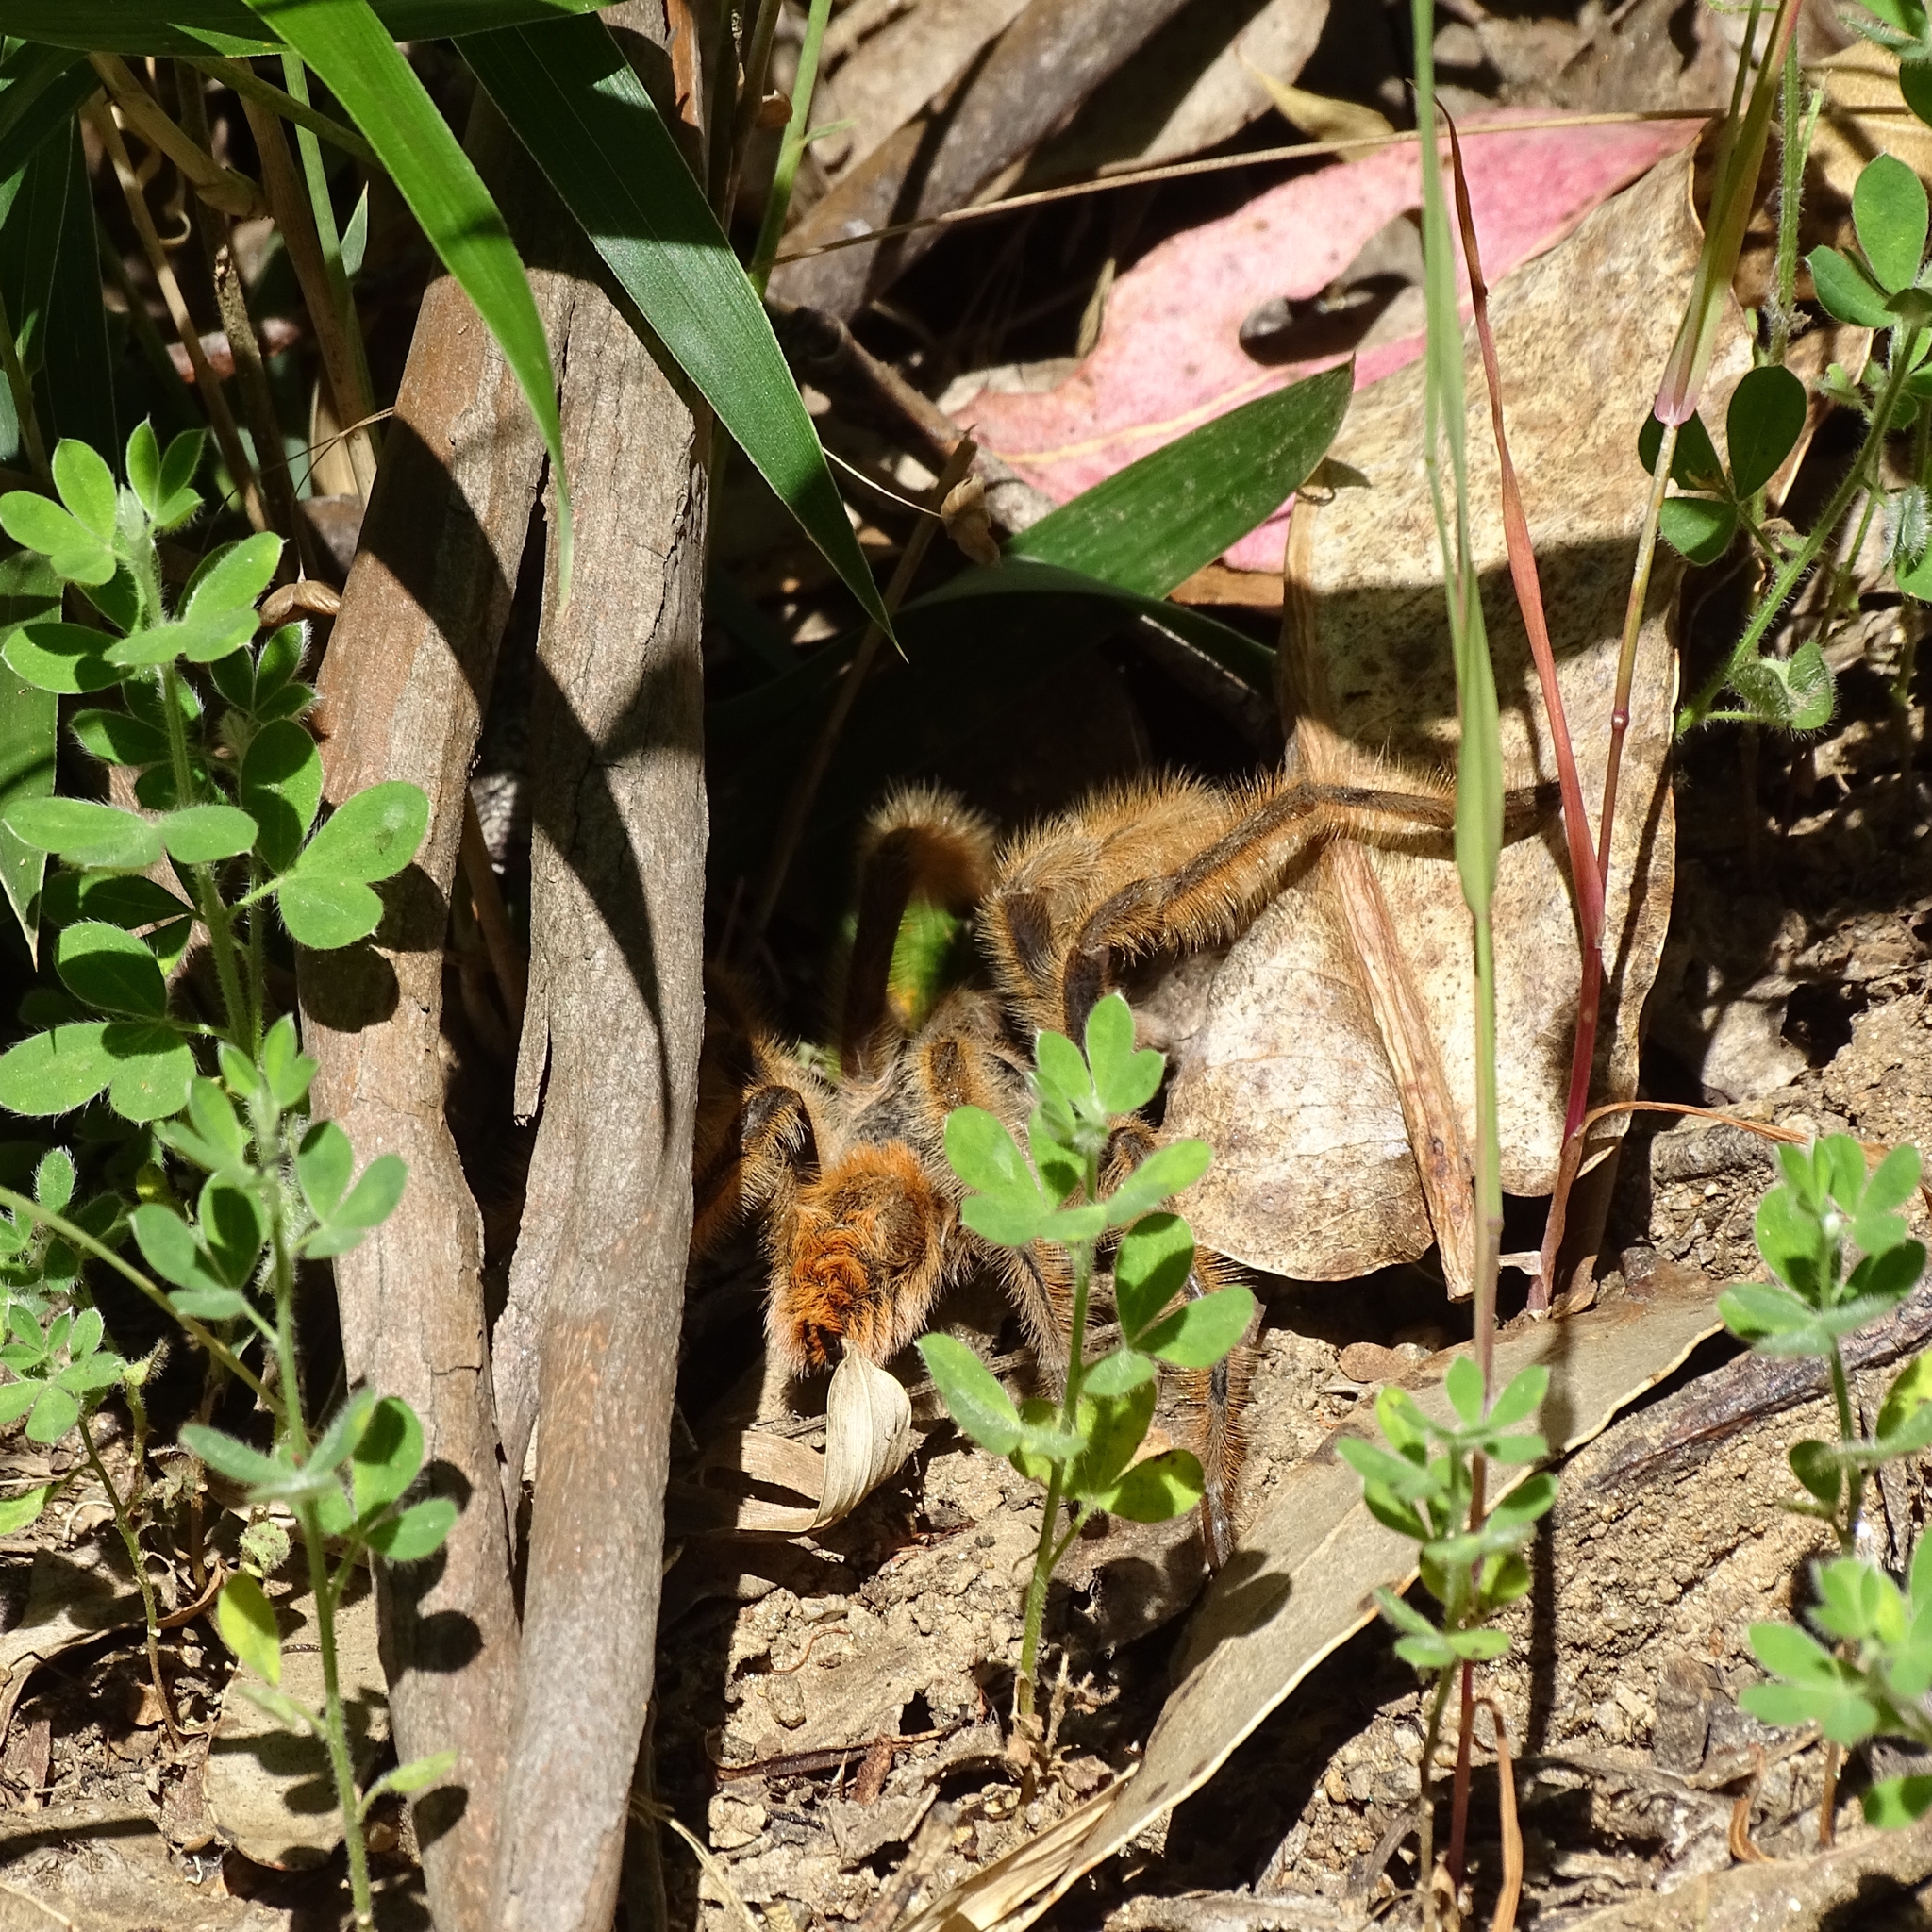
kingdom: Animalia
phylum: Arthropoda
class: Arachnida
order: Araneae
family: Theraphosidae
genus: Phrixotrichus
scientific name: Phrixotrichus vulpinus
